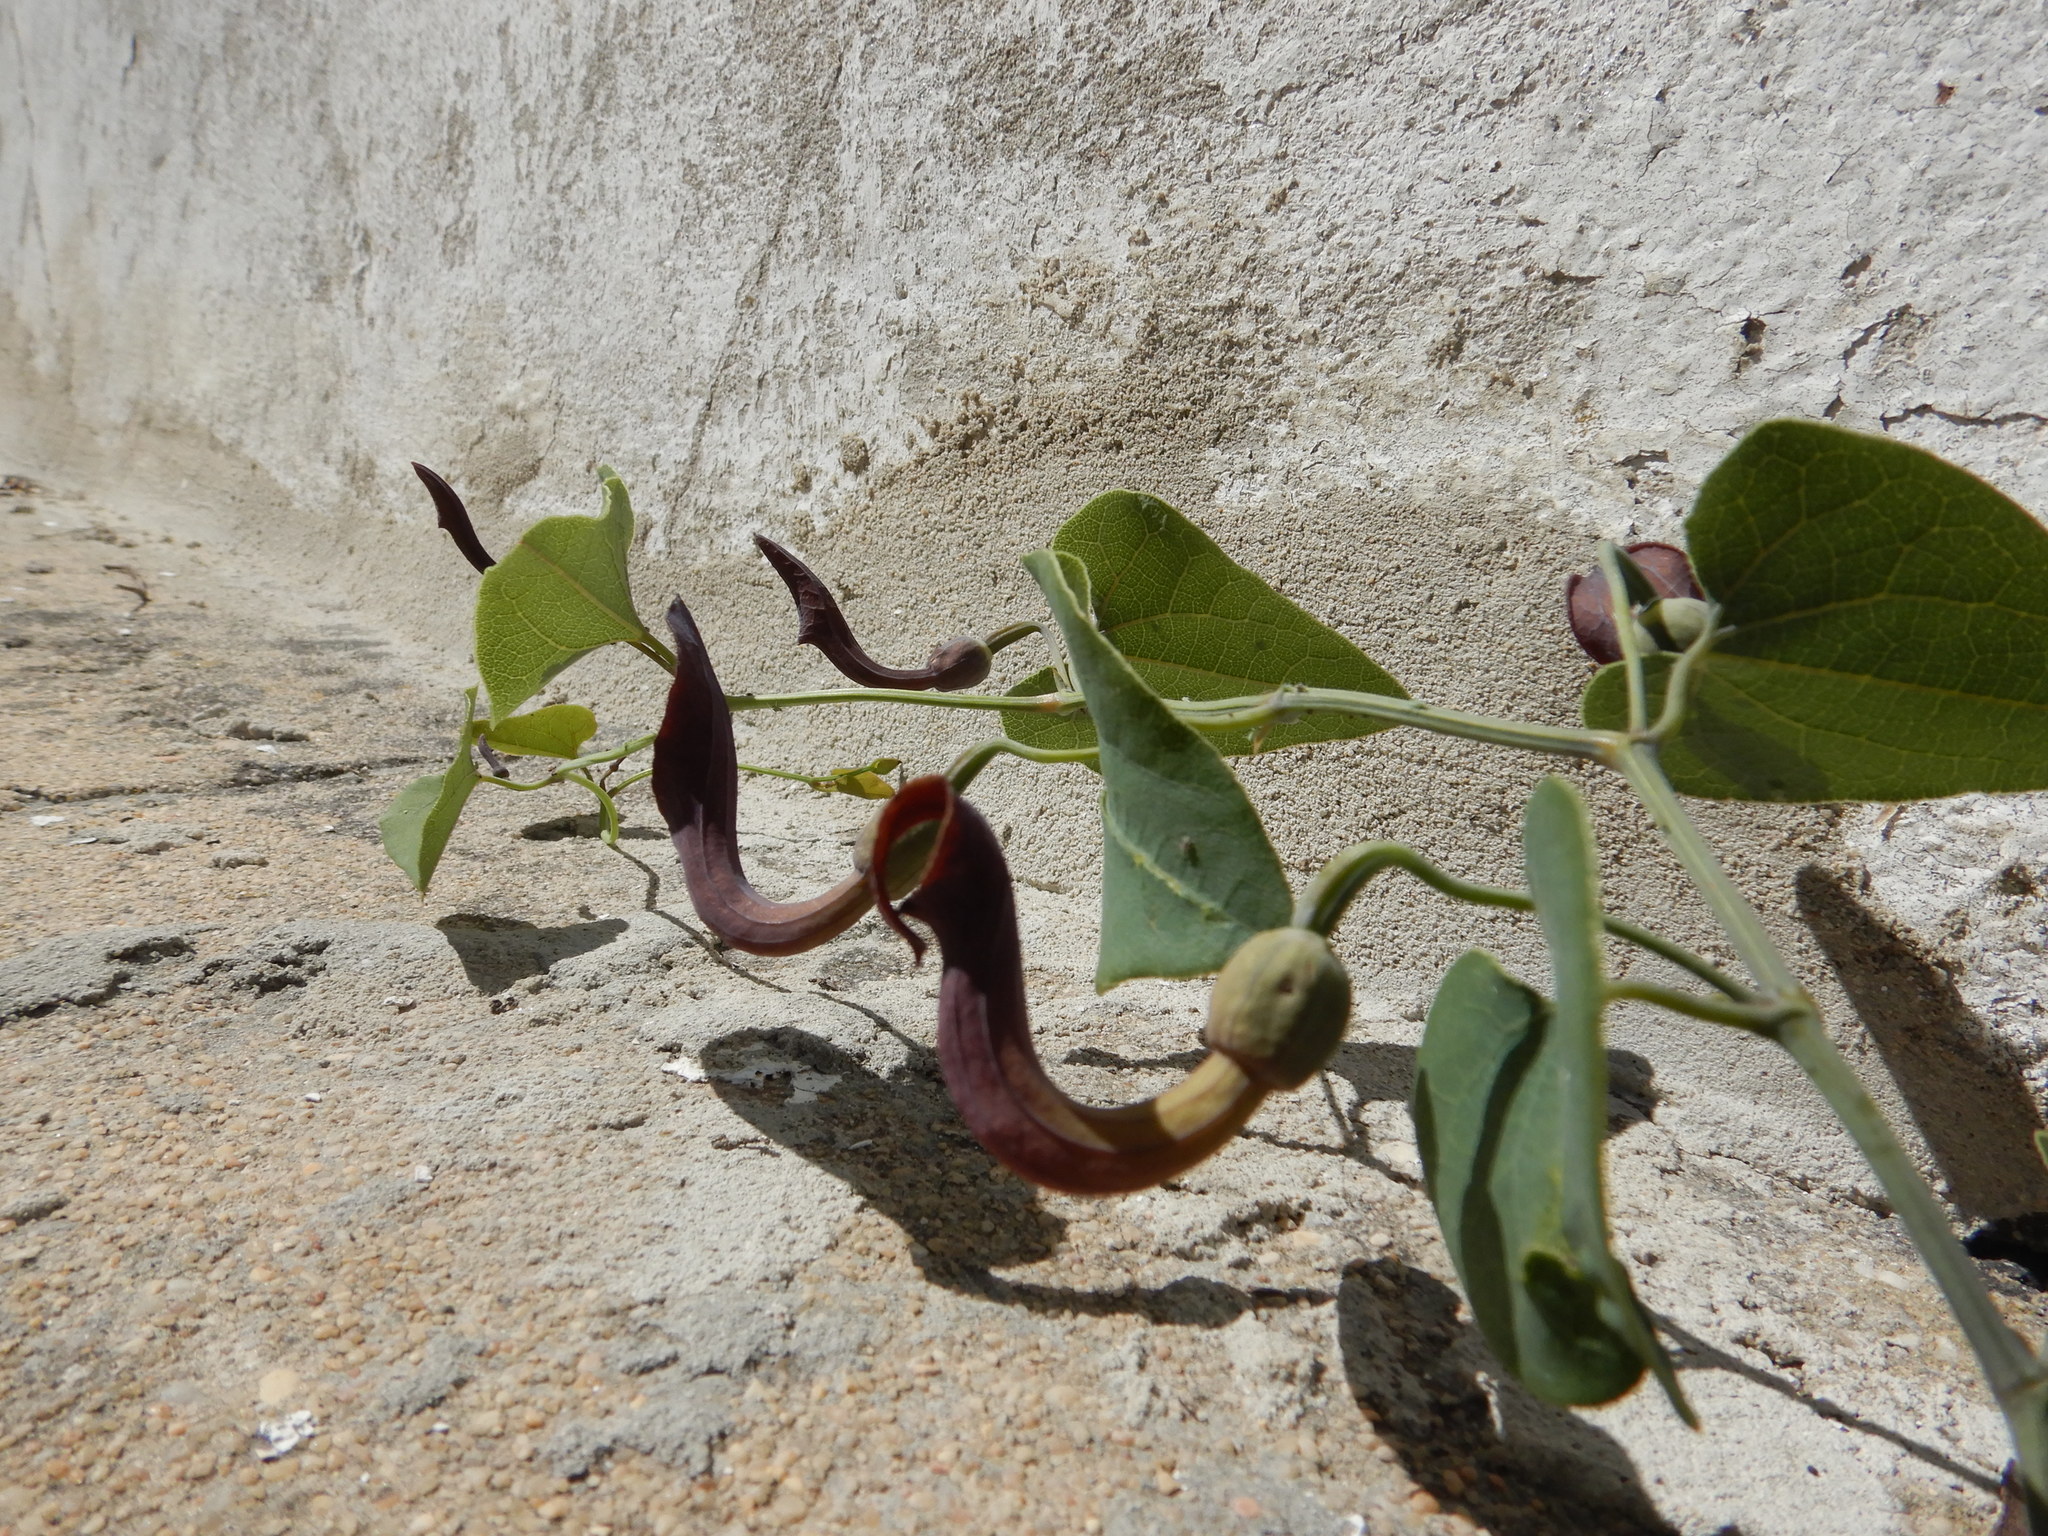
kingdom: Plantae
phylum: Tracheophyta
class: Magnoliopsida
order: Piperales
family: Aristolochiaceae
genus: Aristolochia
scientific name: Aristolochia baetica
